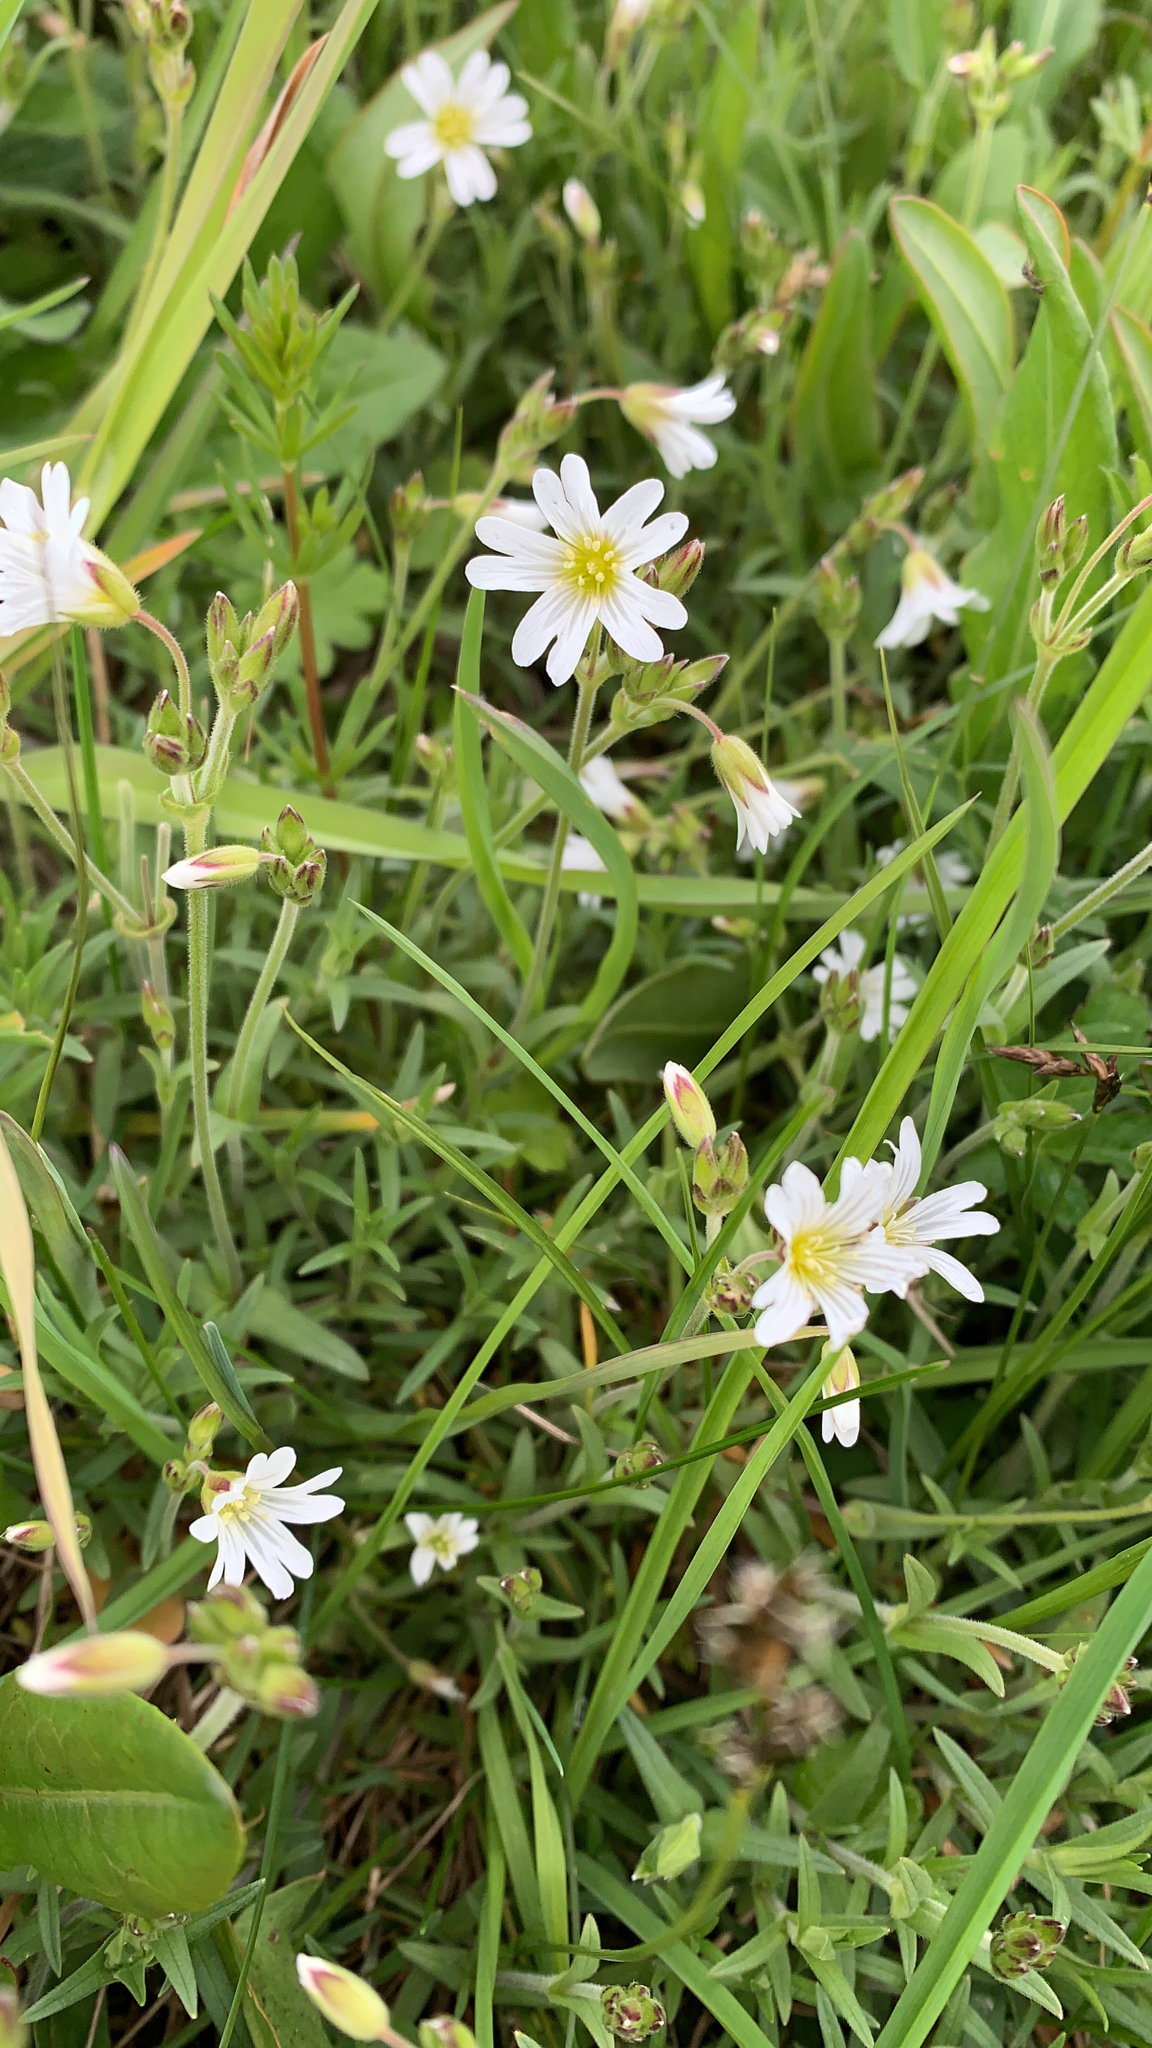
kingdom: Plantae
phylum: Tracheophyta
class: Magnoliopsida
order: Caryophyllales
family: Caryophyllaceae
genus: Cerastium
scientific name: Cerastium arvense
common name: Field mouse-ear
